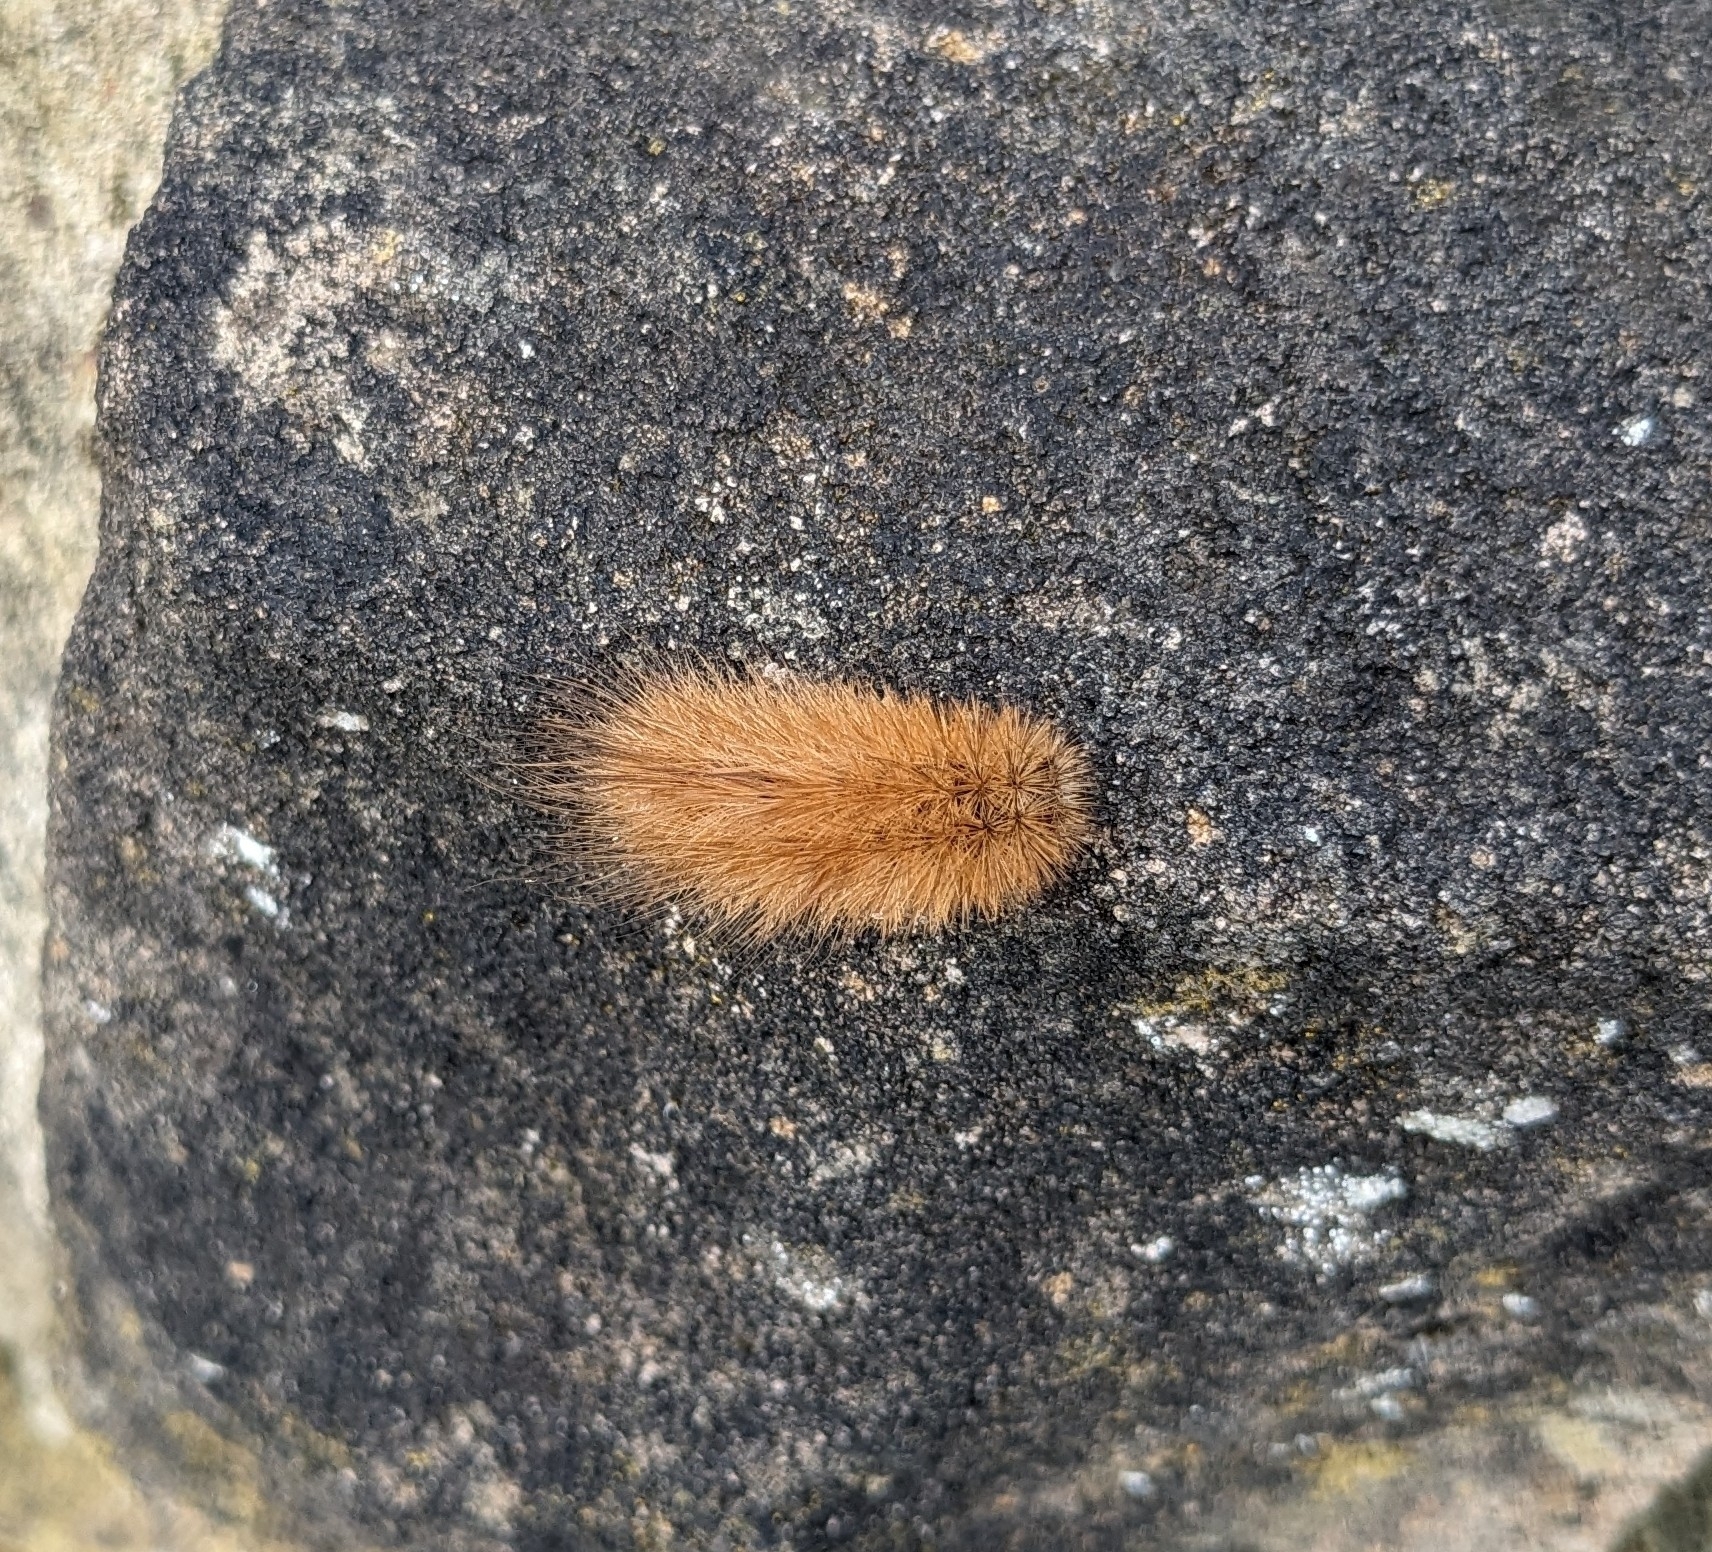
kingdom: Animalia
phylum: Arthropoda
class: Insecta
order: Lepidoptera
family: Erebidae
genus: Phragmatobia
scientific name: Phragmatobia fuliginosa
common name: Ruby tiger
